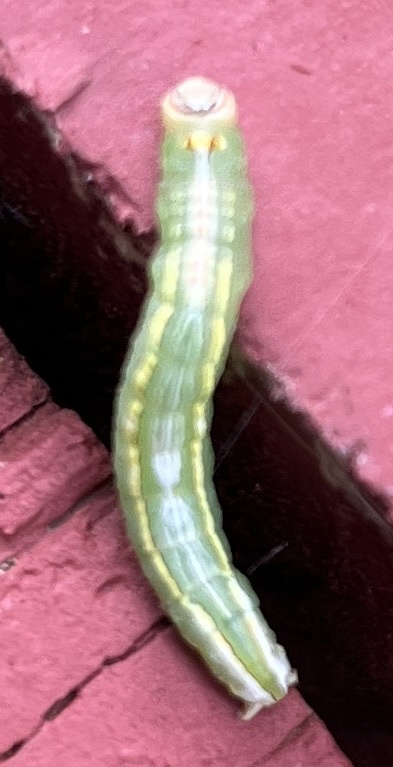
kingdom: Animalia
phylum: Arthropoda
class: Insecta
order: Lepidoptera
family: Notodontidae
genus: Disphragis
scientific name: Disphragis Cecrita guttivitta
